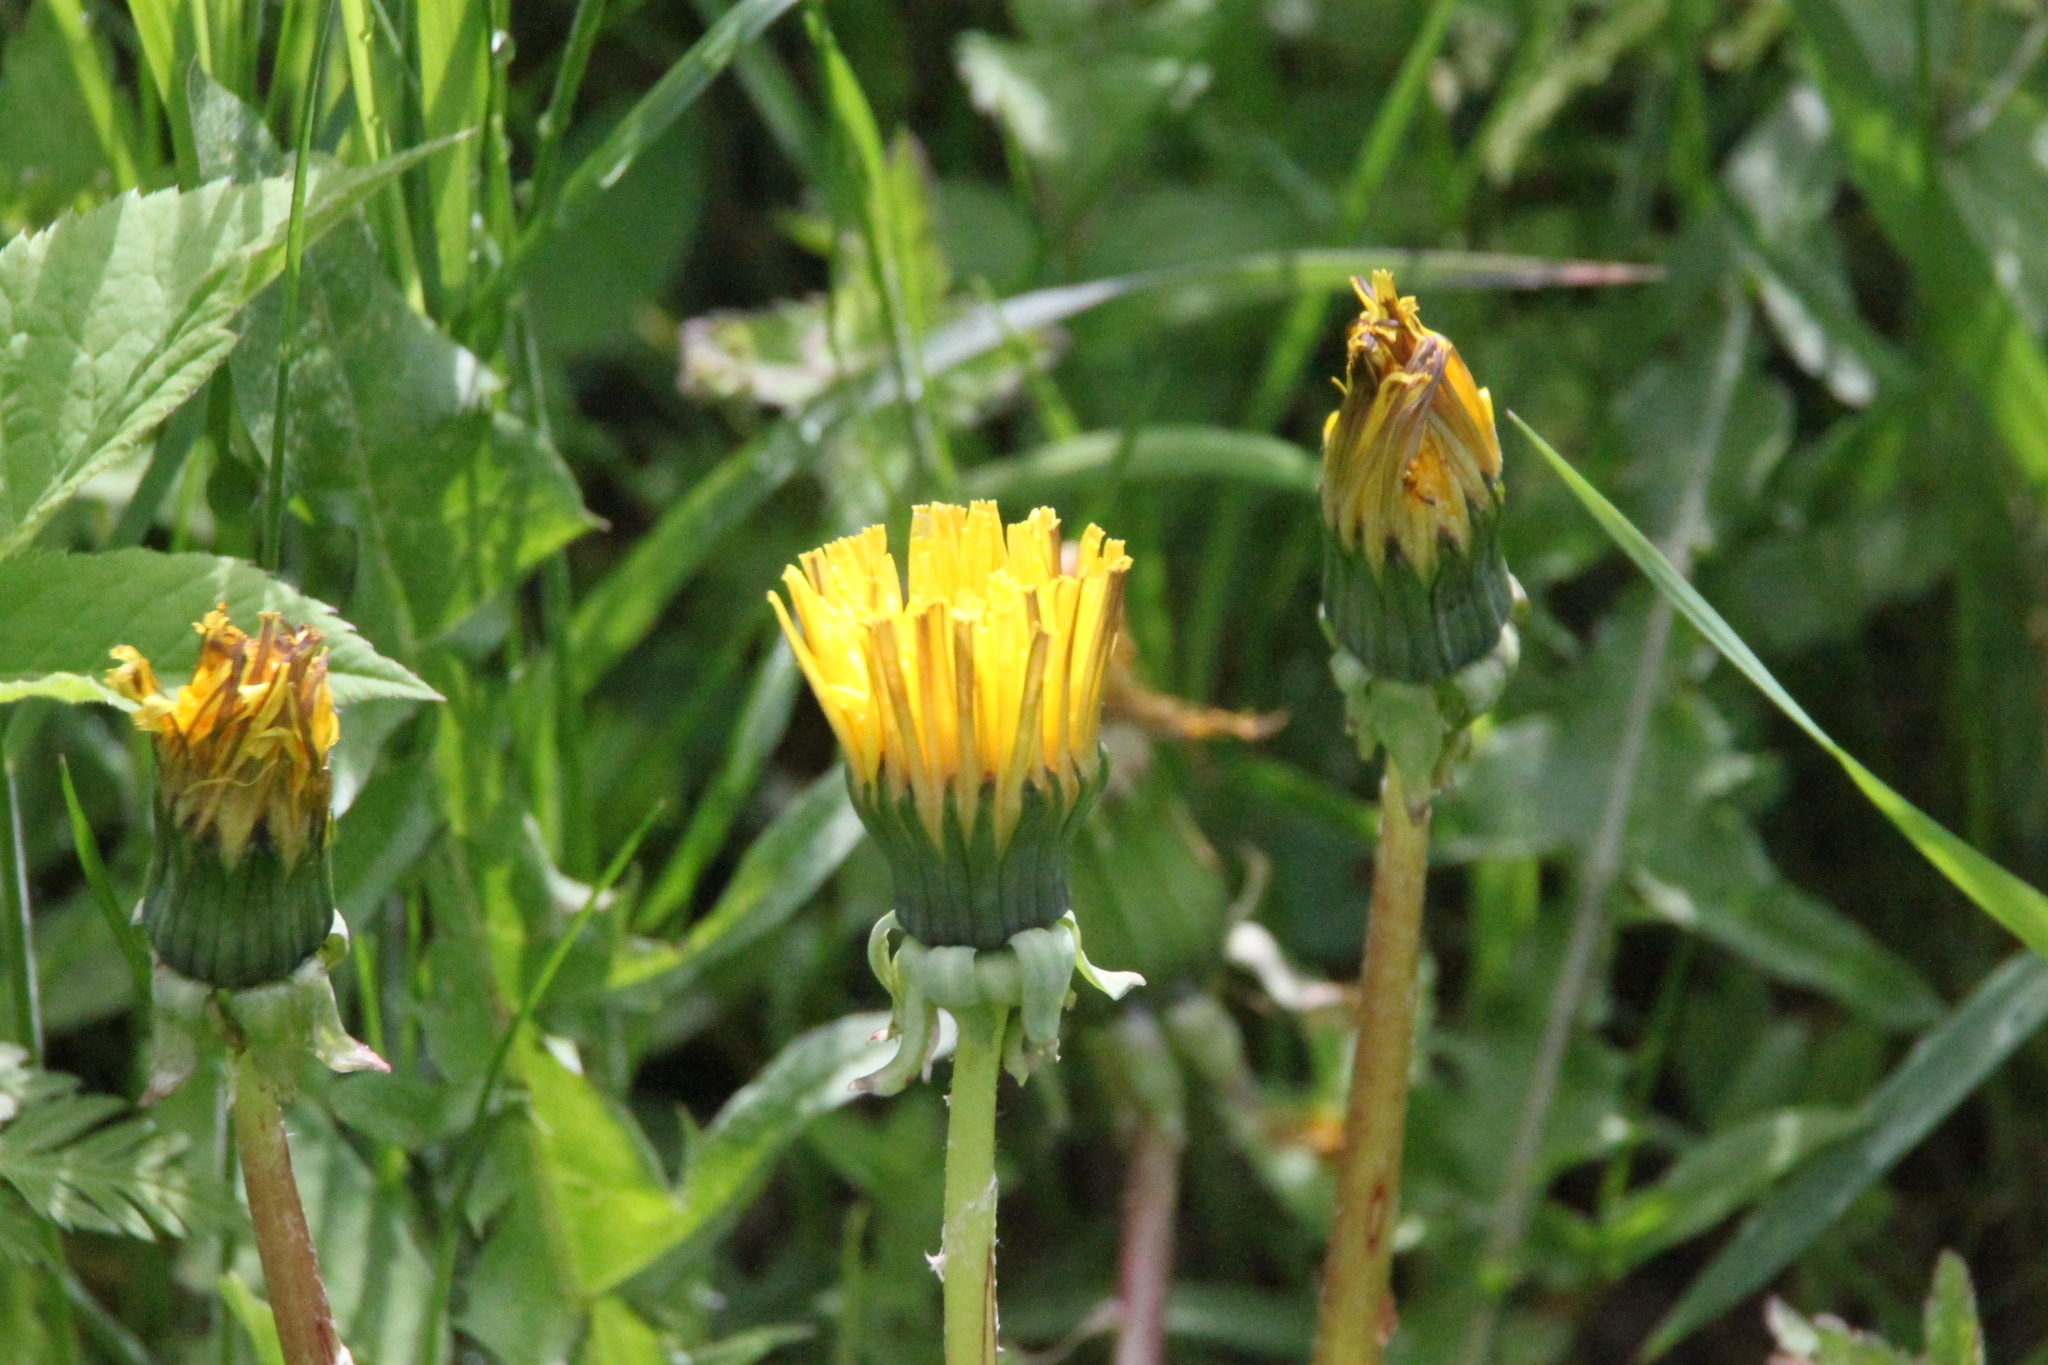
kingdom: Plantae
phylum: Tracheophyta
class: Magnoliopsida
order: Asterales
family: Asteraceae
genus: Taraxacum
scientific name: Taraxacum officinale
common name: Common dandelion
